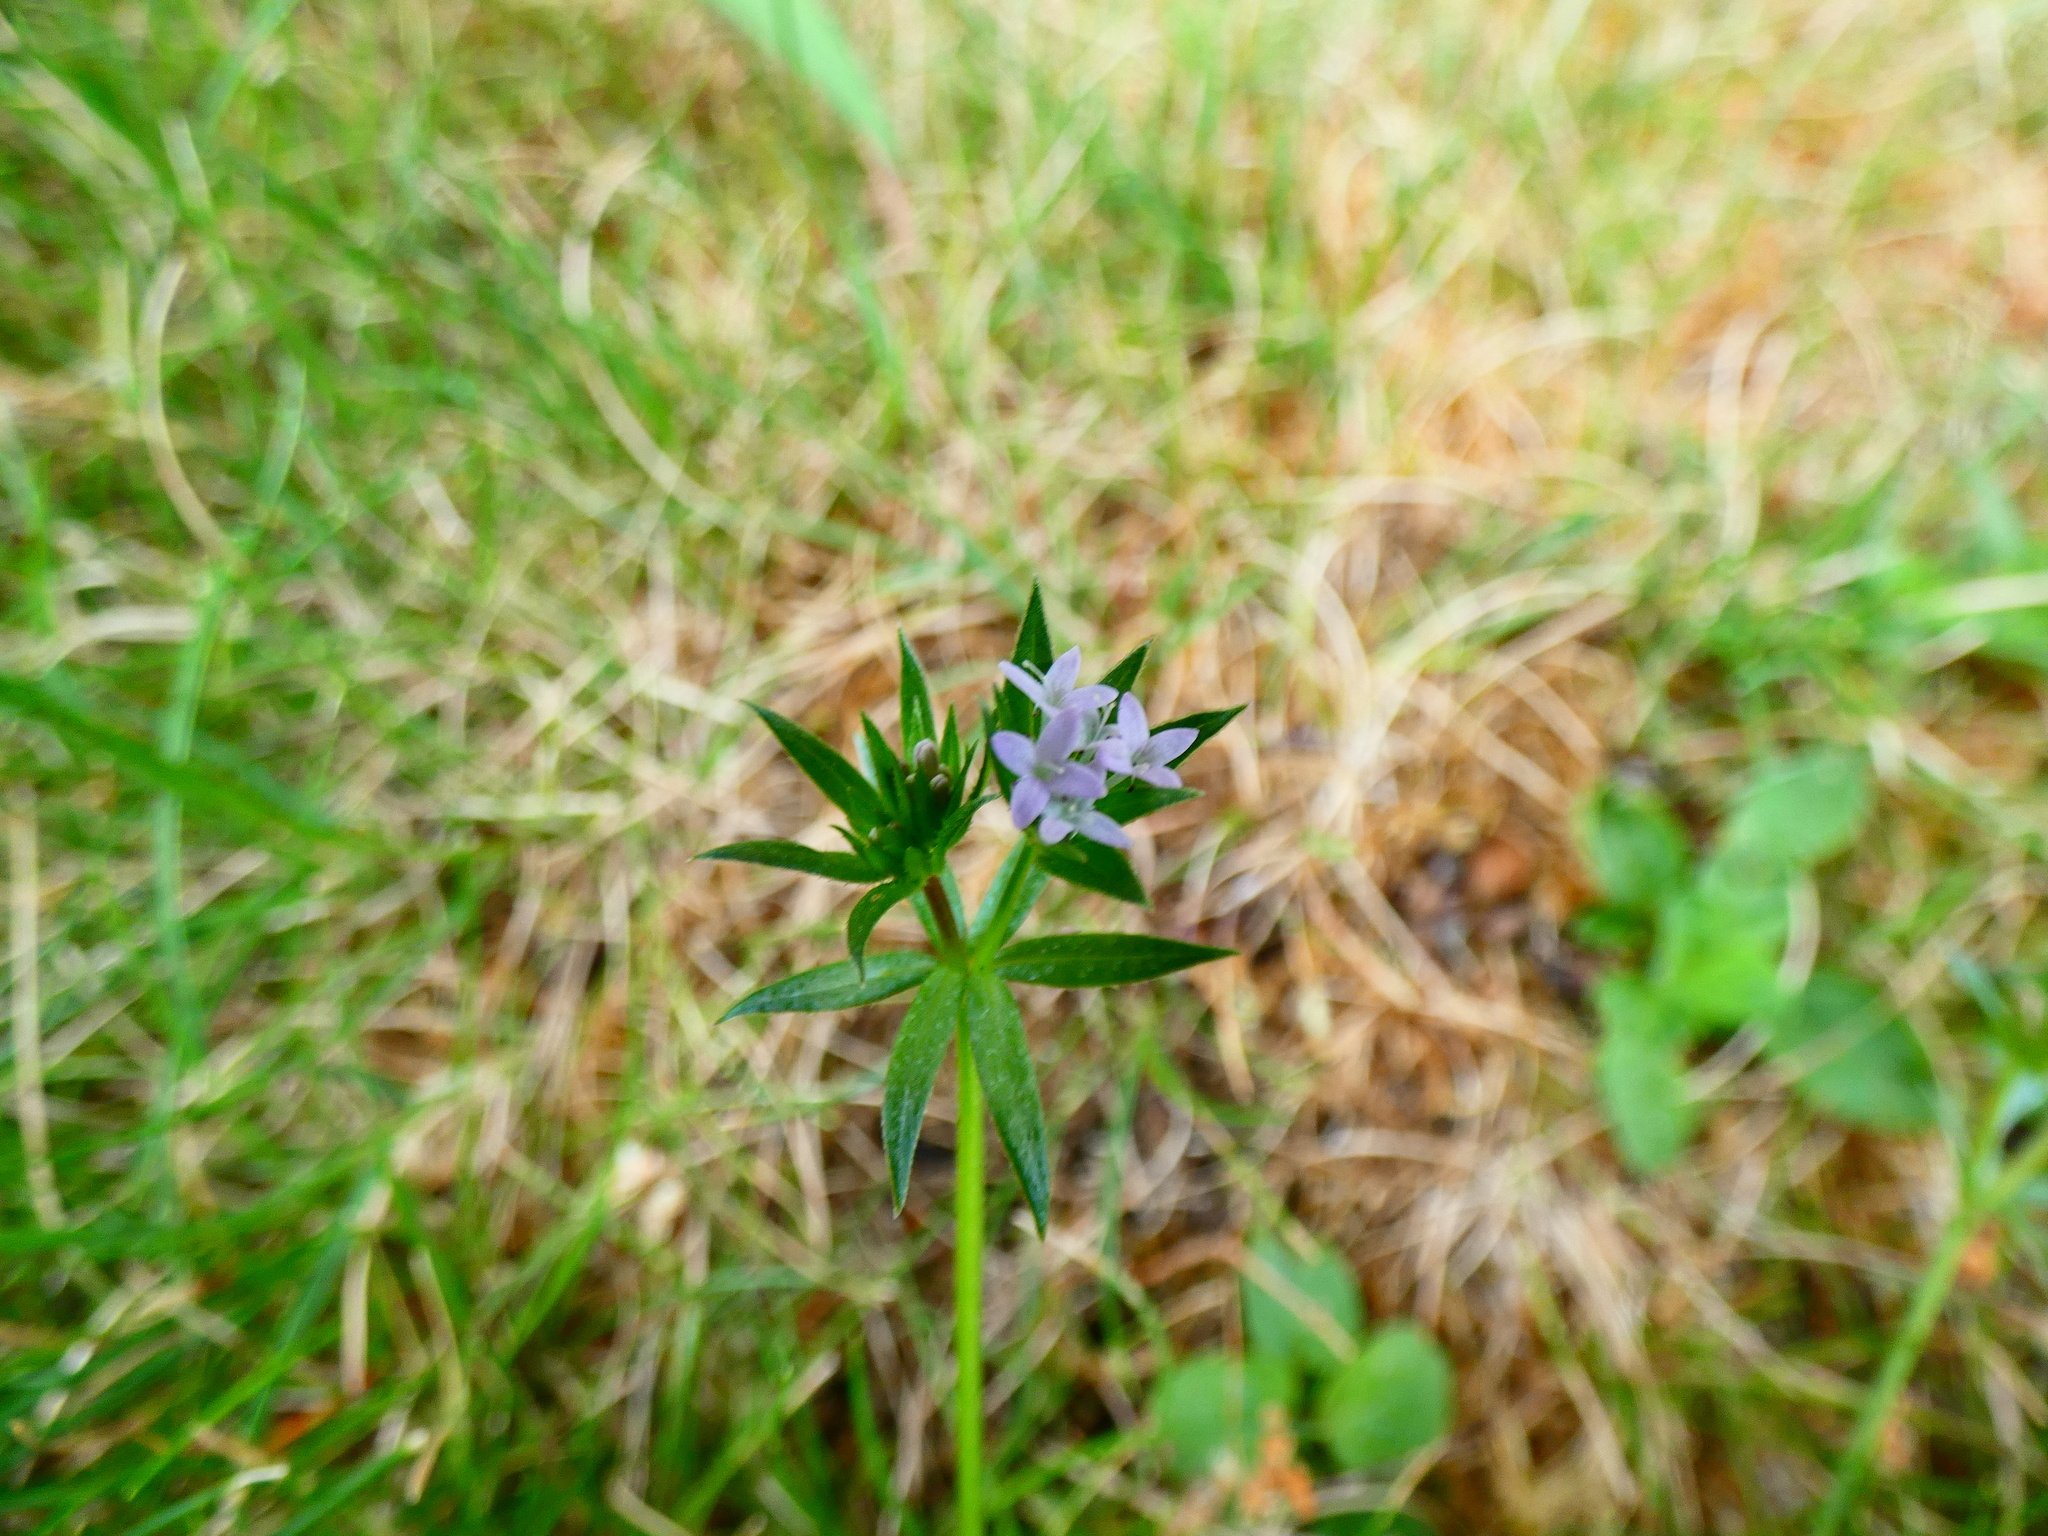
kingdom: Plantae
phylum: Tracheophyta
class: Magnoliopsida
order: Gentianales
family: Rubiaceae
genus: Sherardia
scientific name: Sherardia arvensis
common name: Field madder
